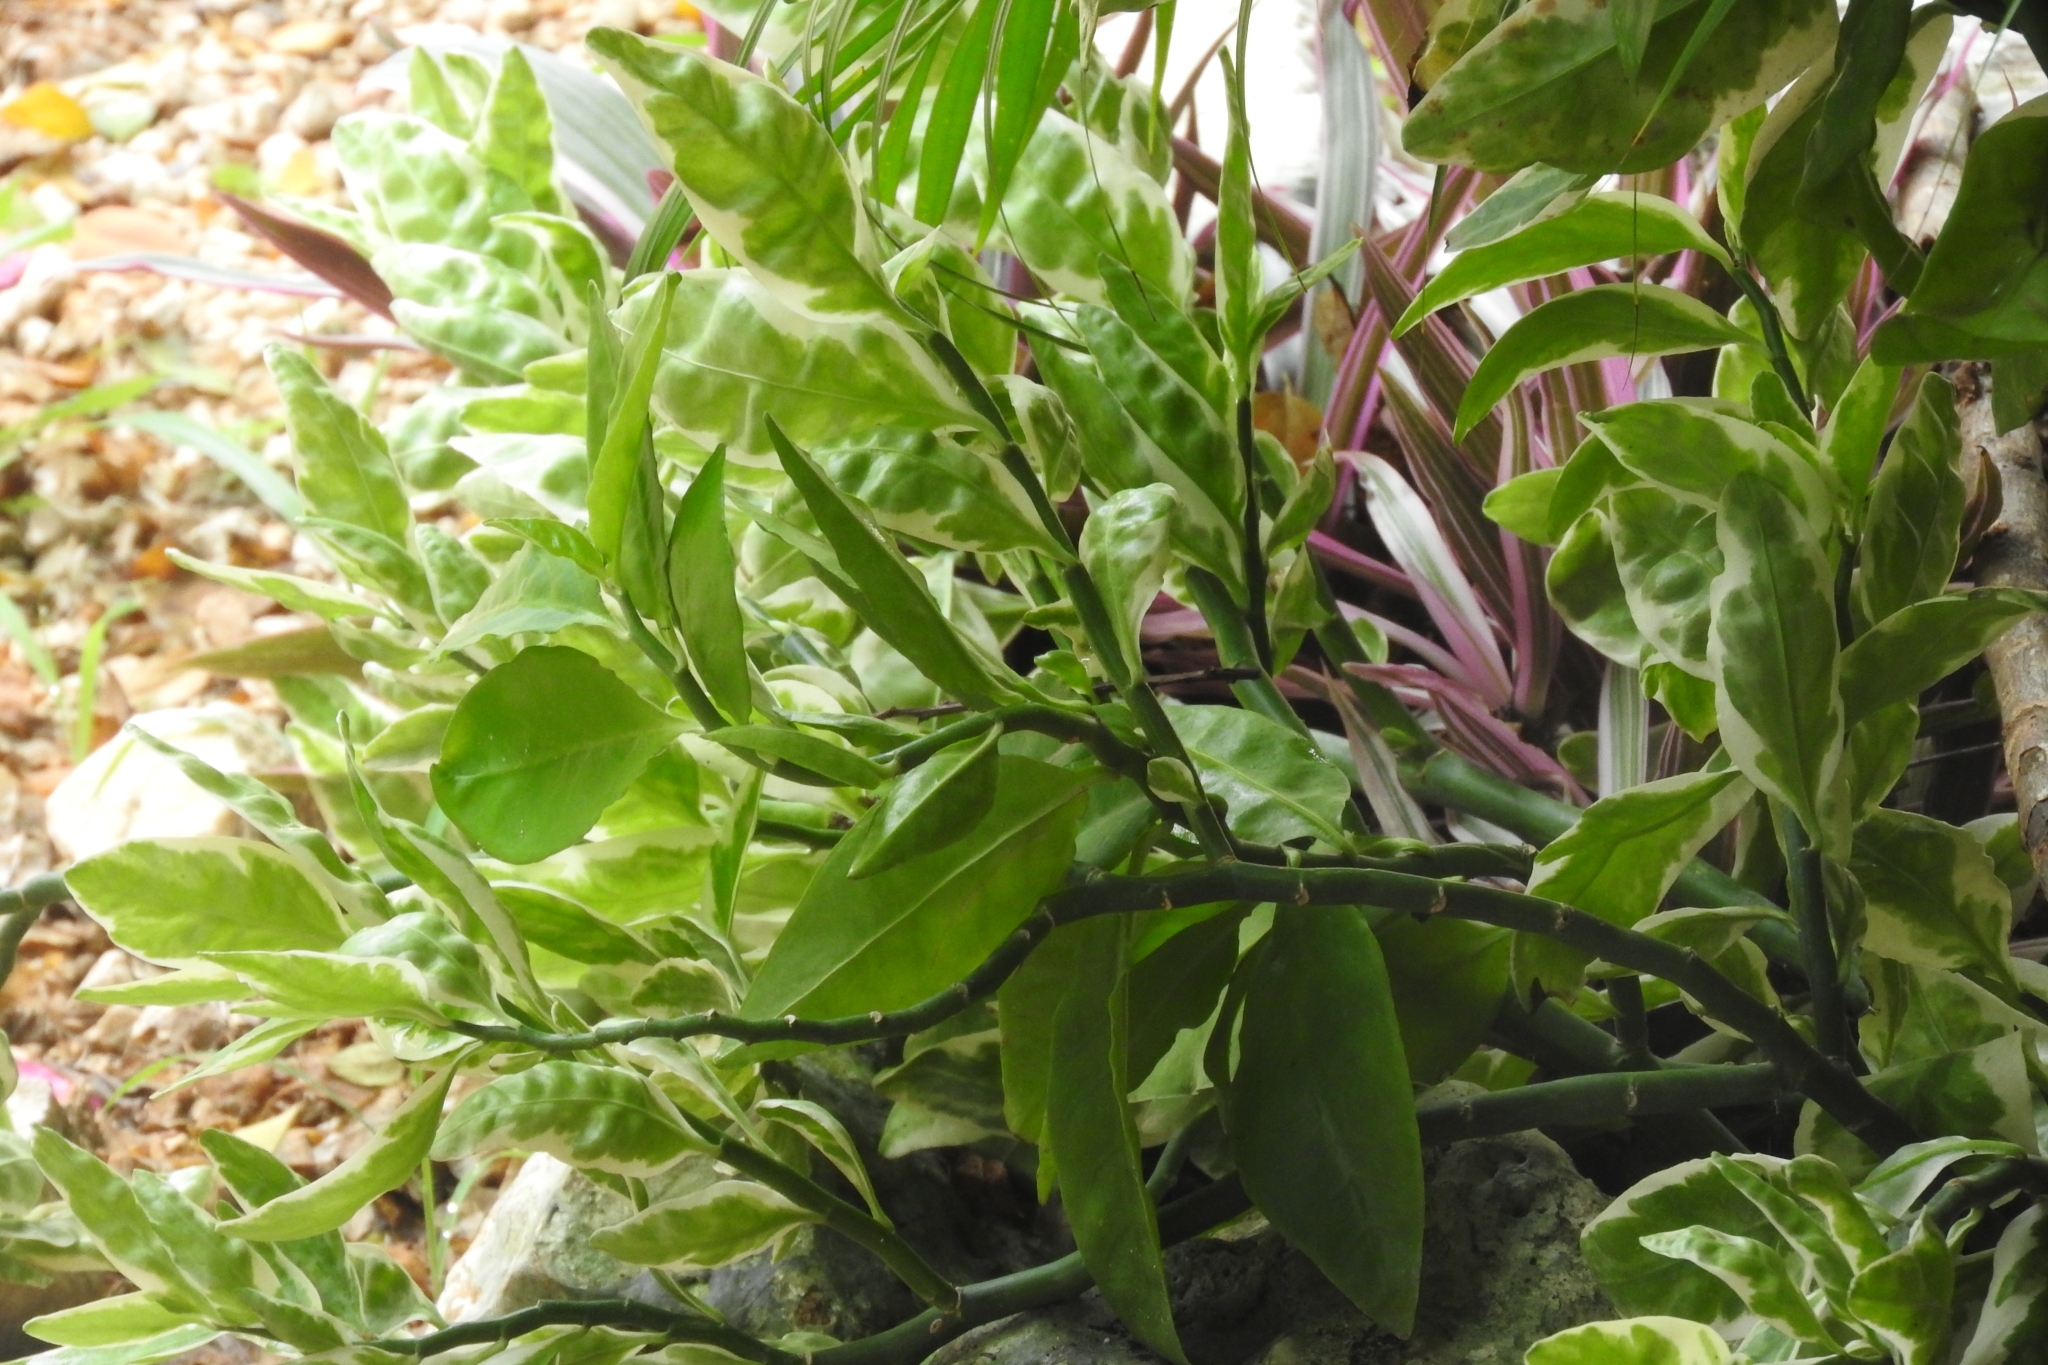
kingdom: Plantae
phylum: Tracheophyta
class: Magnoliopsida
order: Malpighiales
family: Euphorbiaceae
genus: Euphorbia
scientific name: Euphorbia tithymaloides
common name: Slipperplant
